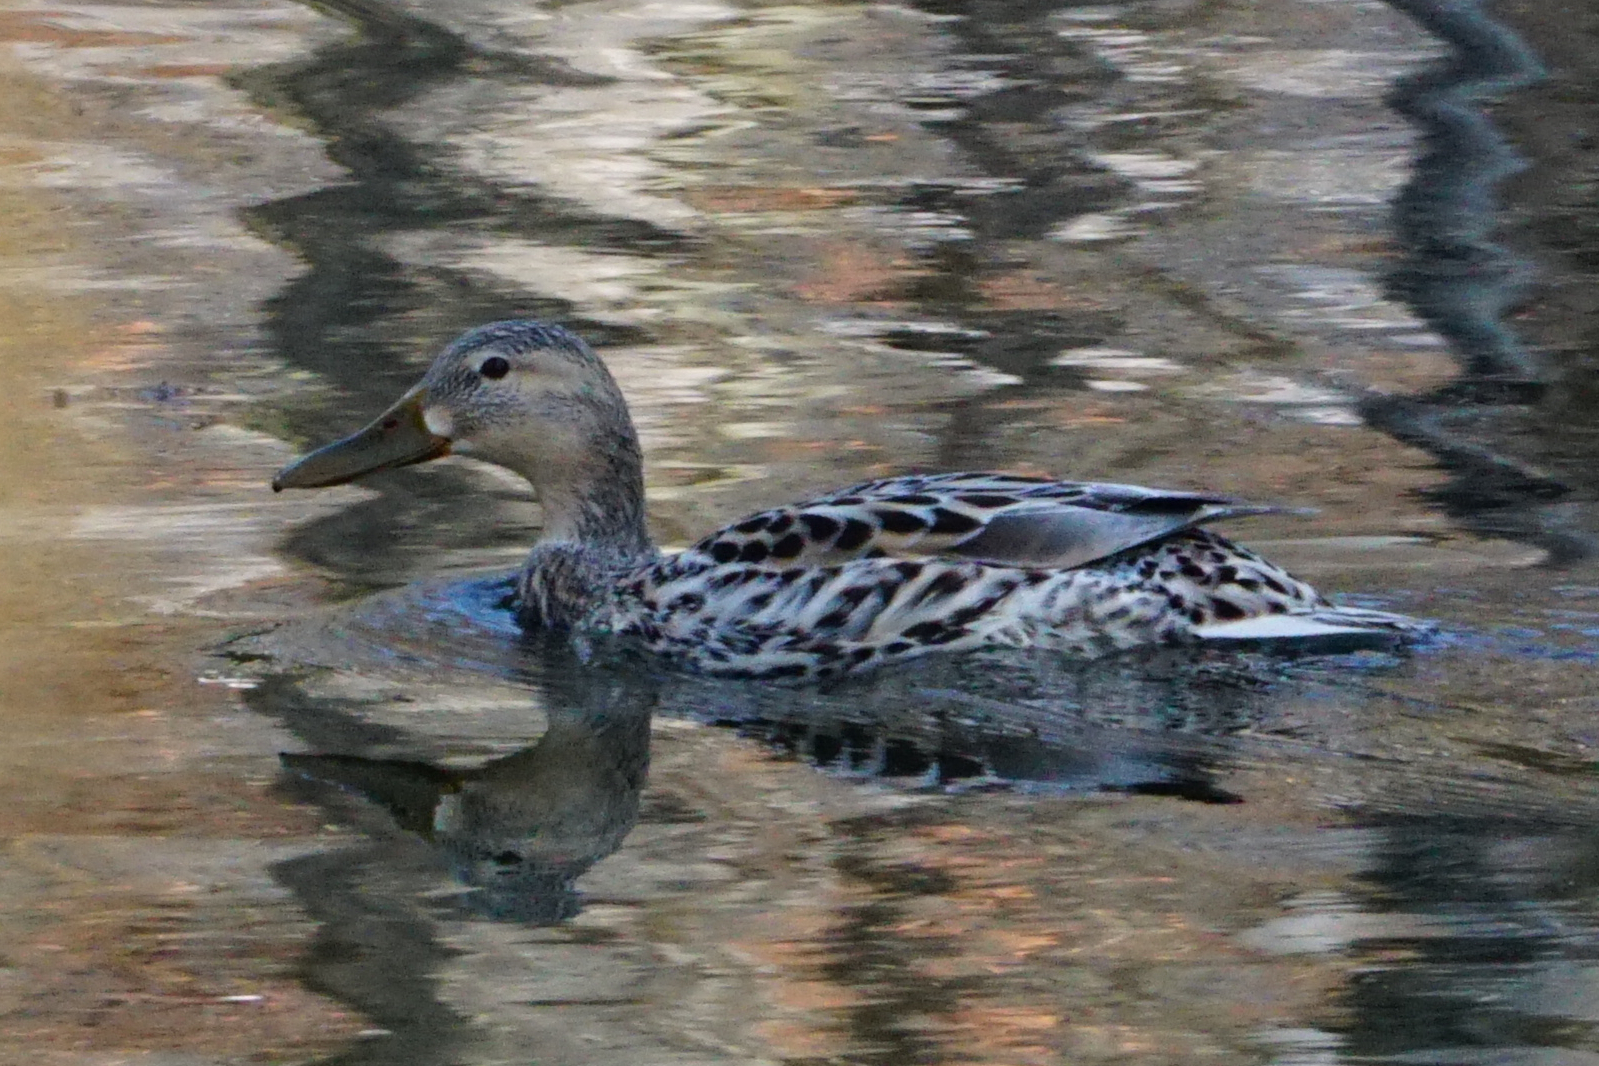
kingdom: Animalia
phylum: Chordata
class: Aves
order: Anseriformes
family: Anatidae
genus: Anas
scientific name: Anas platyrhynchos
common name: Mallard
